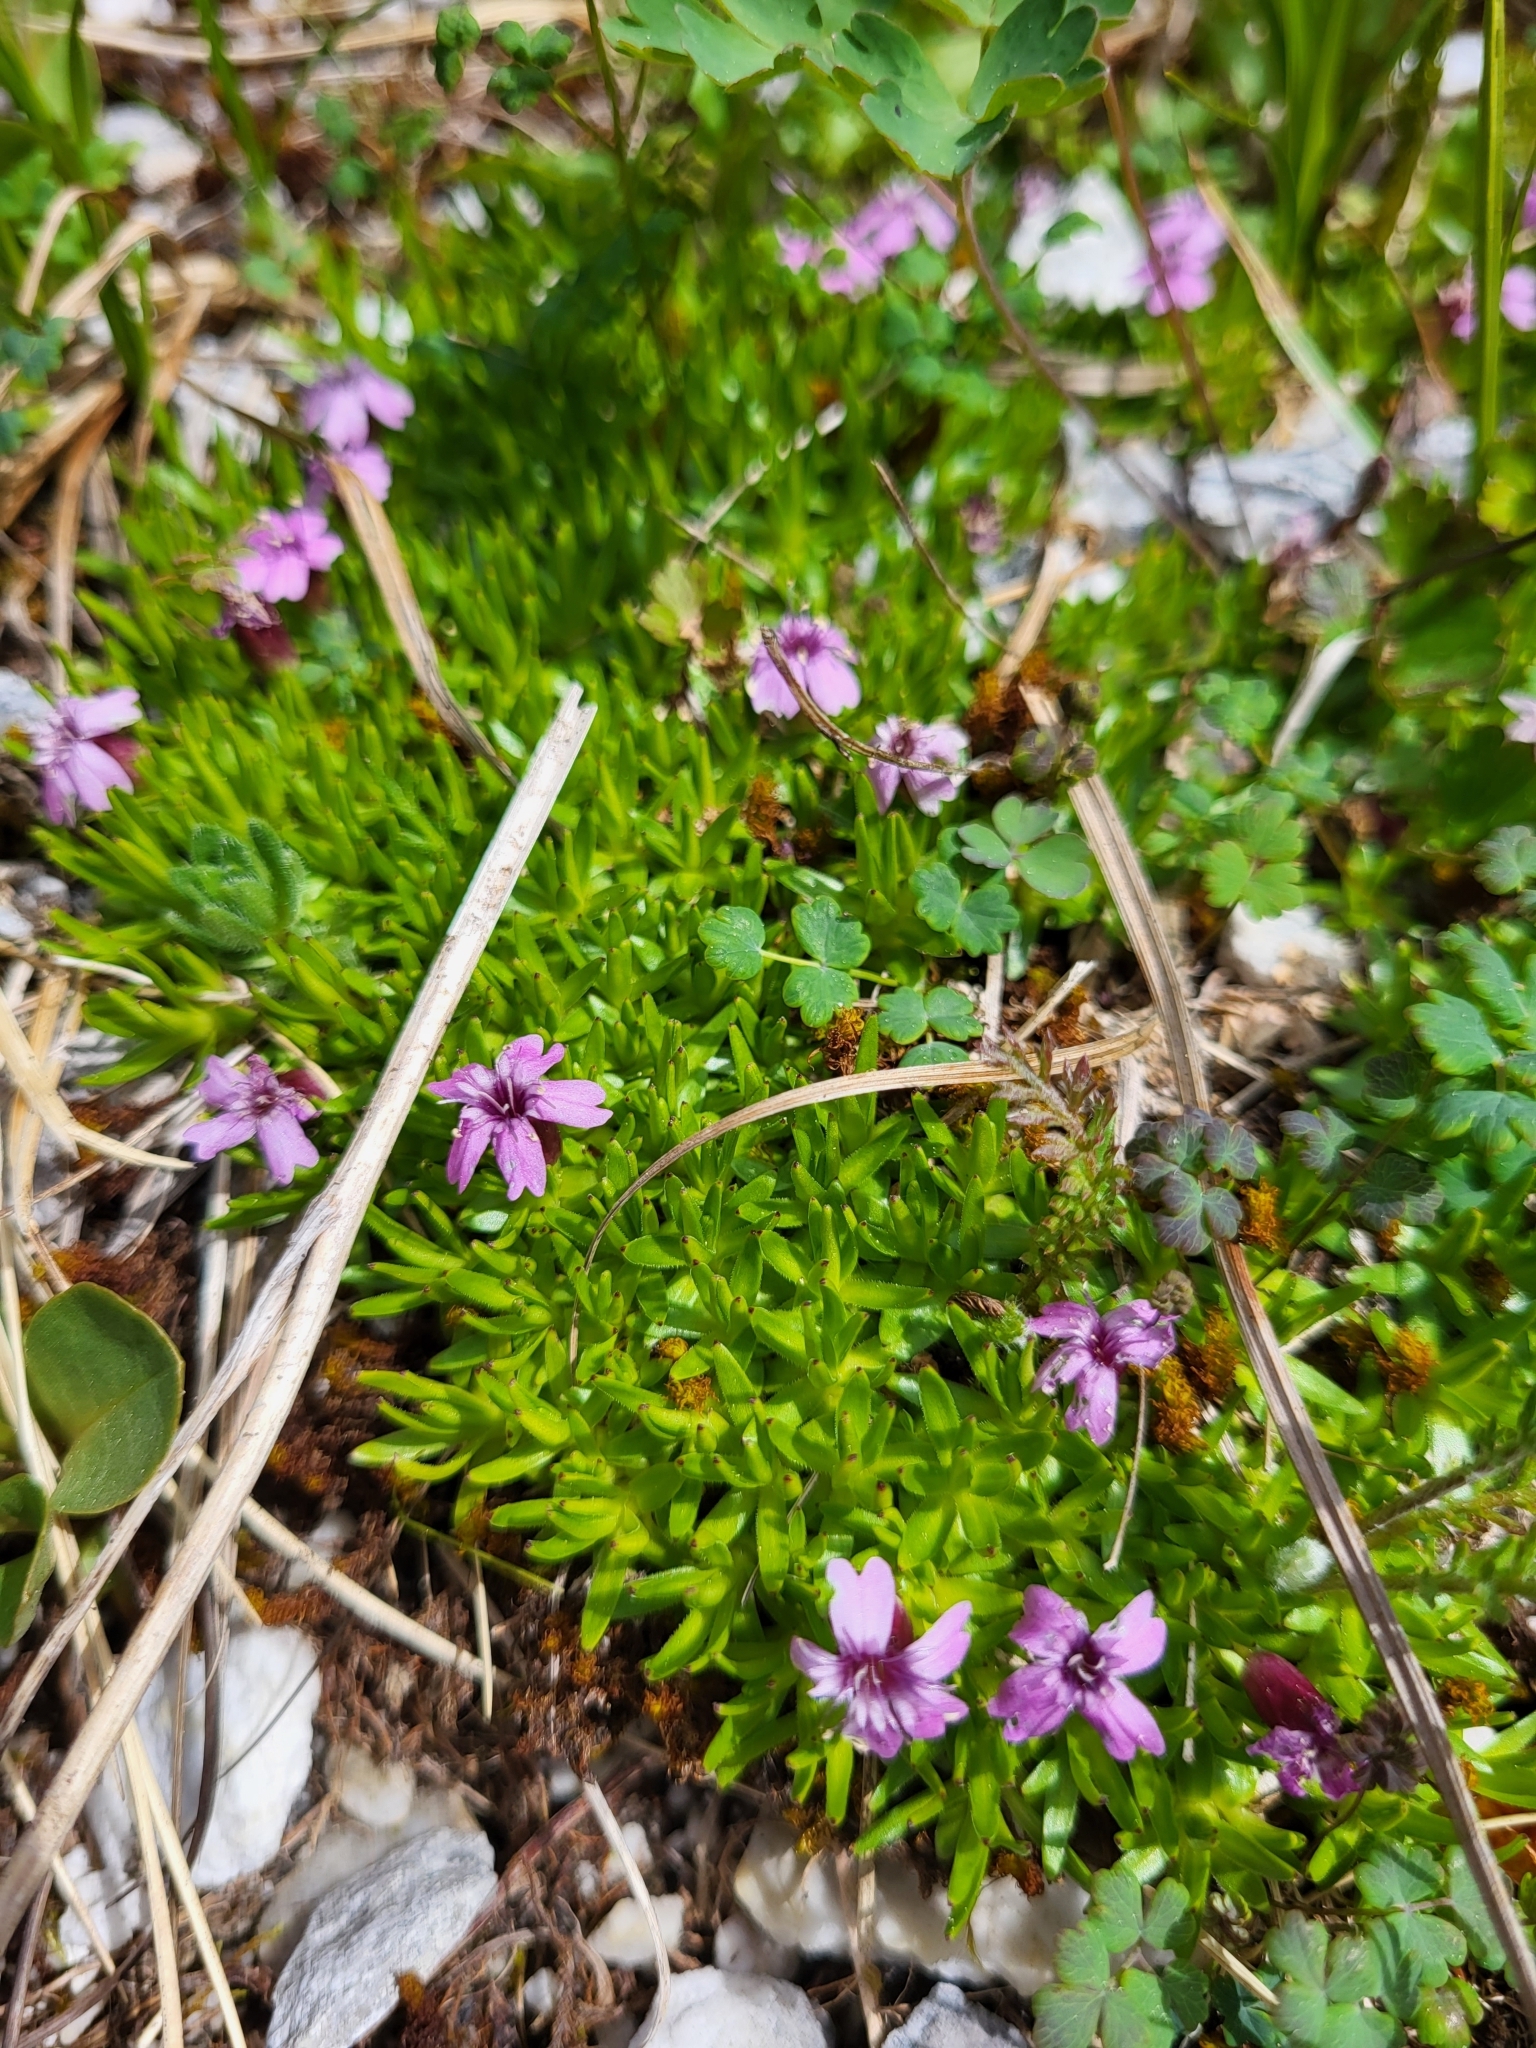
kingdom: Plantae
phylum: Tracheophyta
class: Magnoliopsida
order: Caryophyllales
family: Caryophyllaceae
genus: Silene
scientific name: Silene acaulis
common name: Moss campion
